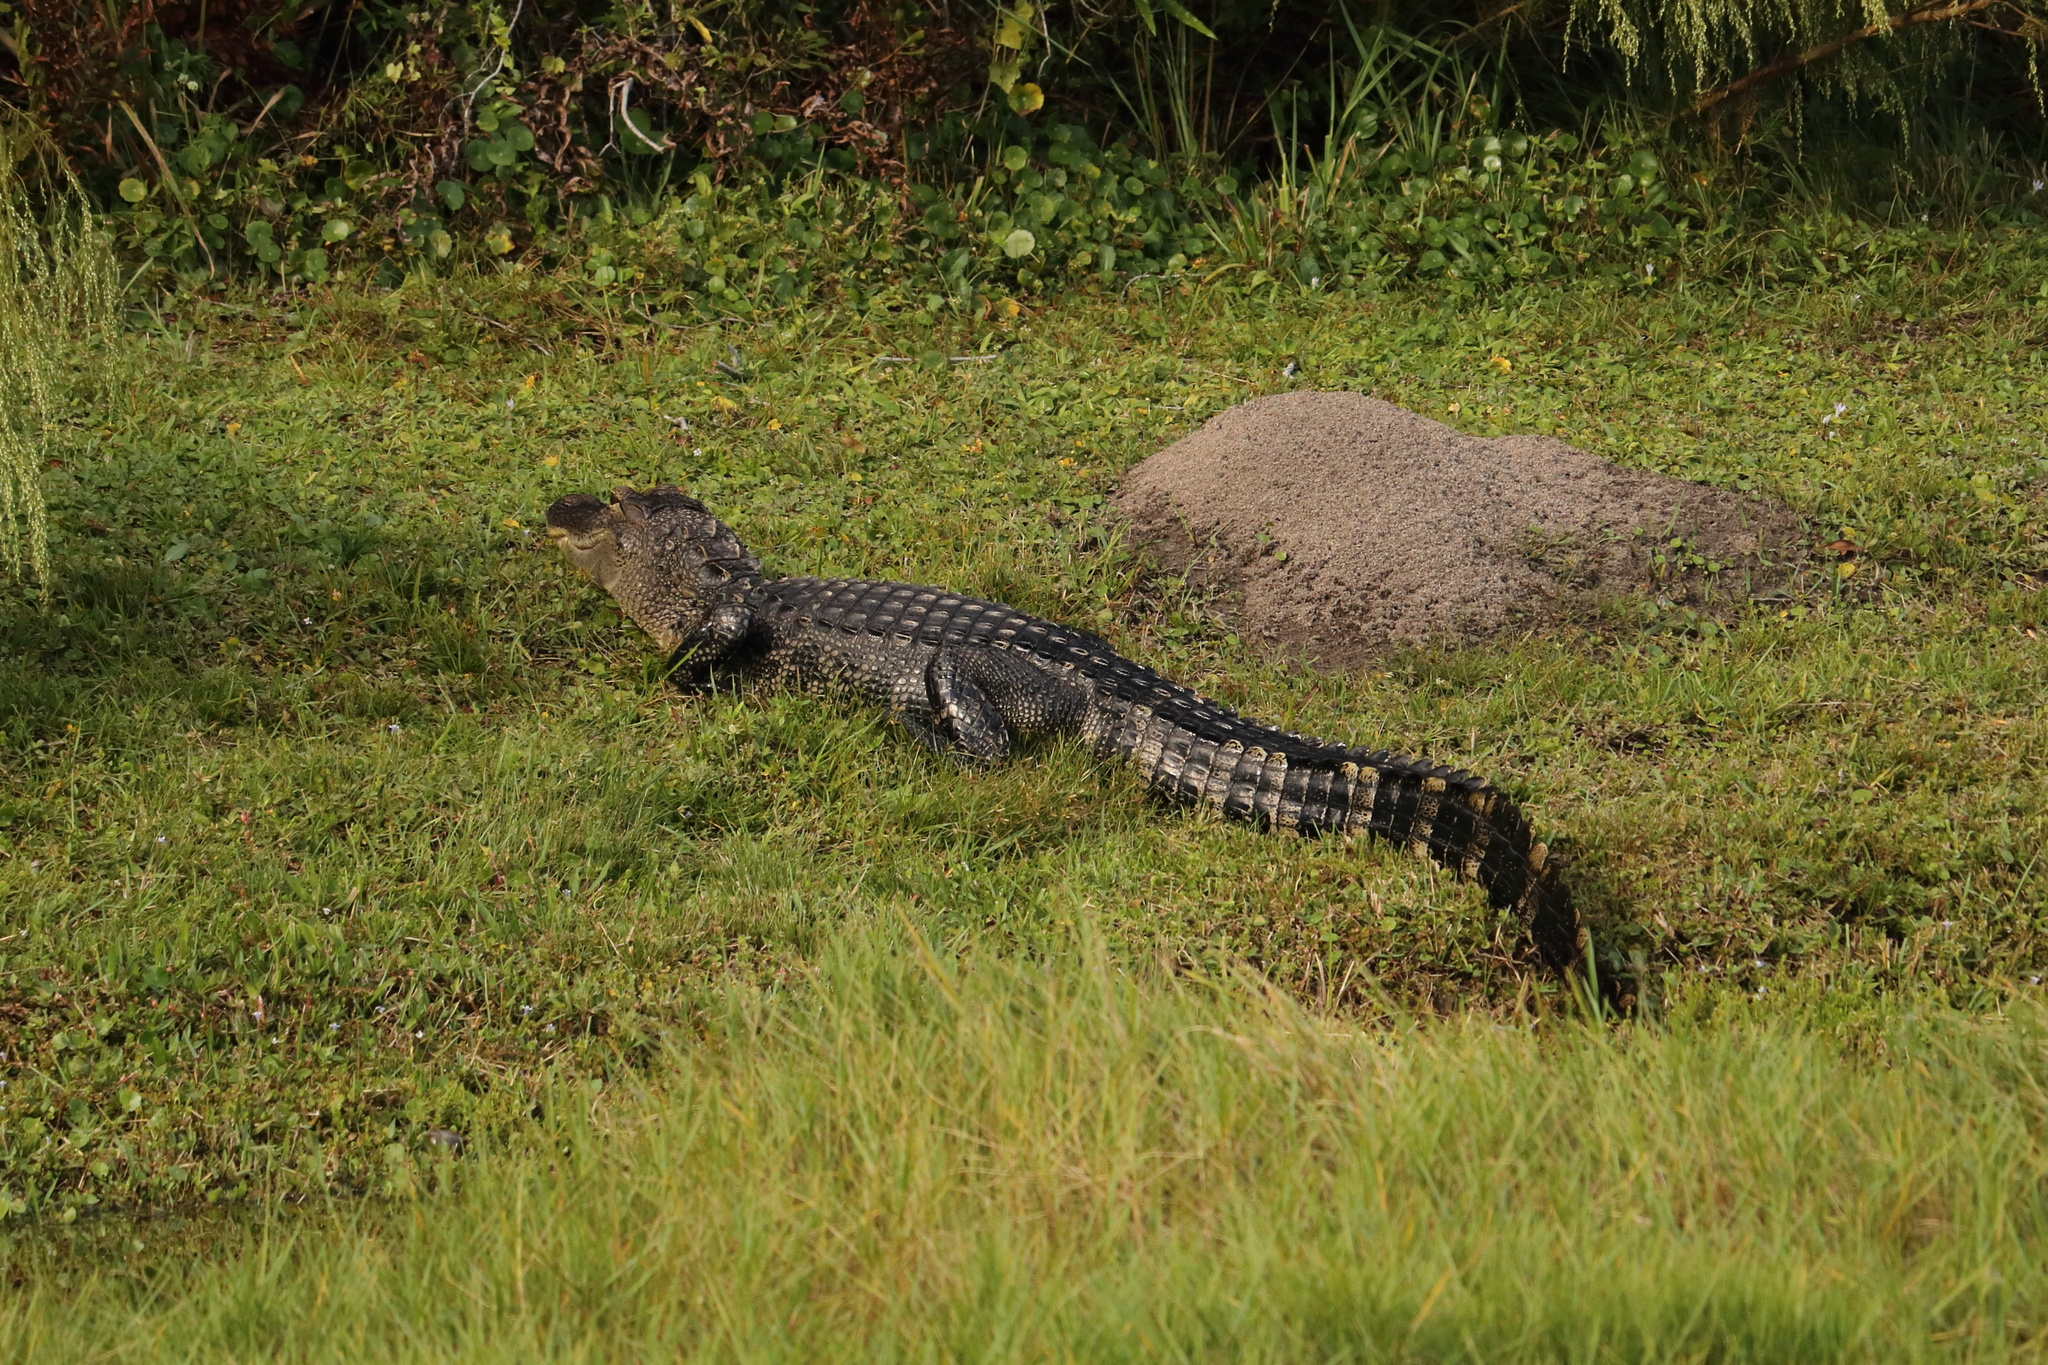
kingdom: Animalia
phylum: Chordata
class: Crocodylia
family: Alligatoridae
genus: Alligator
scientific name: Alligator mississippiensis
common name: American alligator
